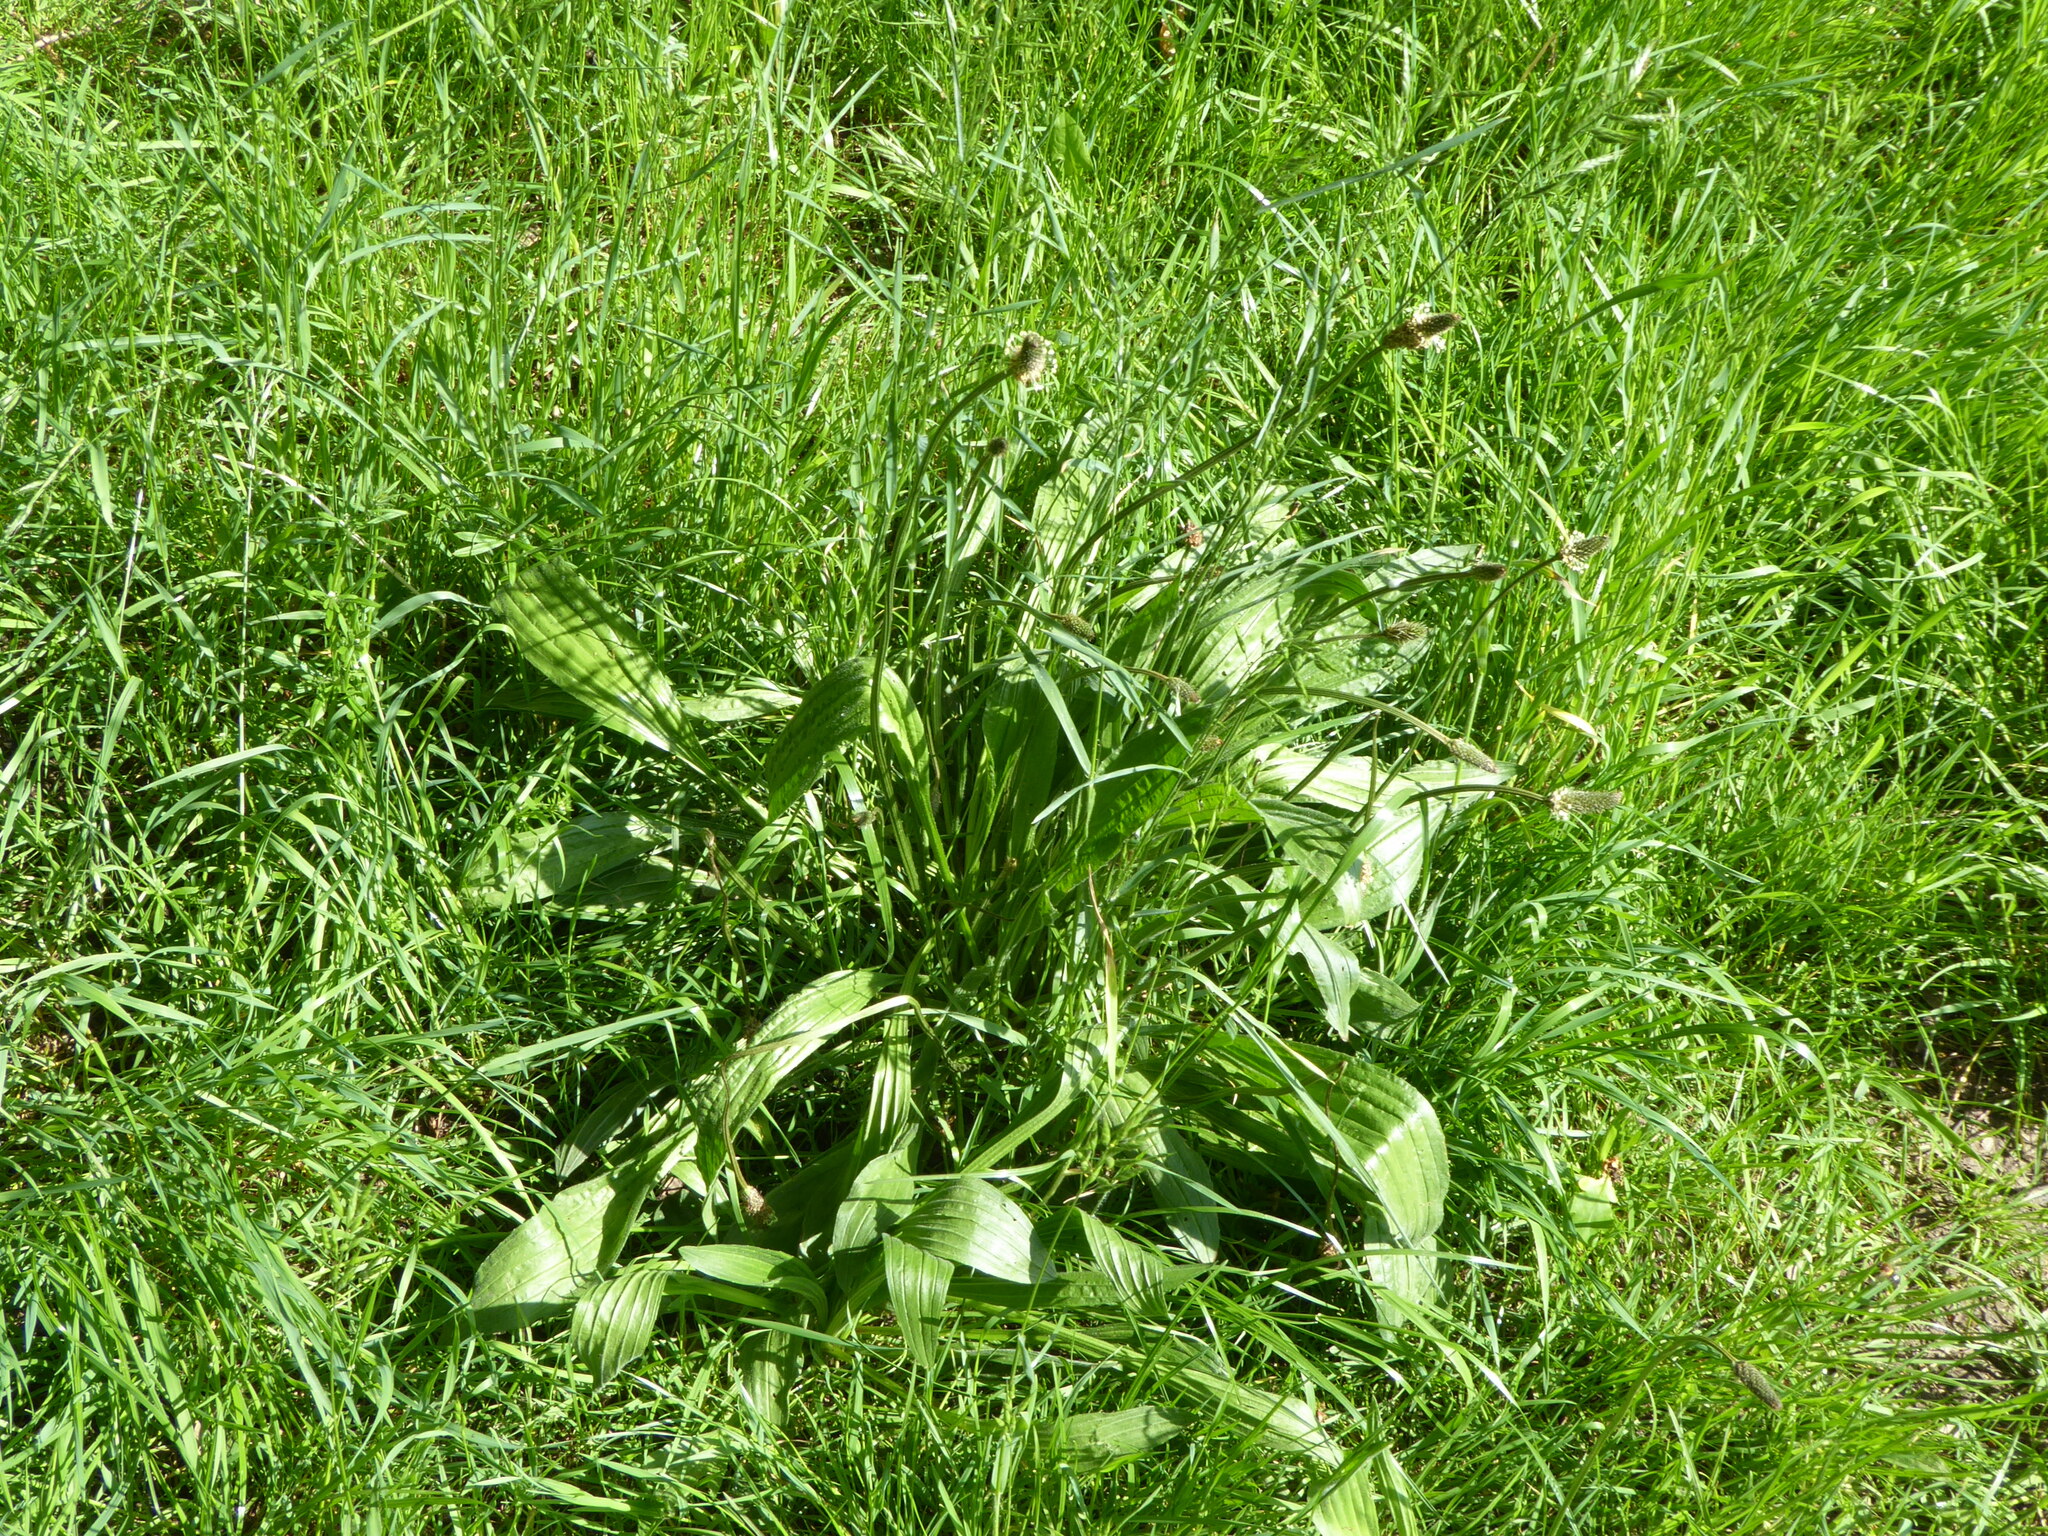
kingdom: Plantae
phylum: Tracheophyta
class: Magnoliopsida
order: Lamiales
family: Plantaginaceae
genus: Plantago
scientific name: Plantago lanceolata
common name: Ribwort plantain
